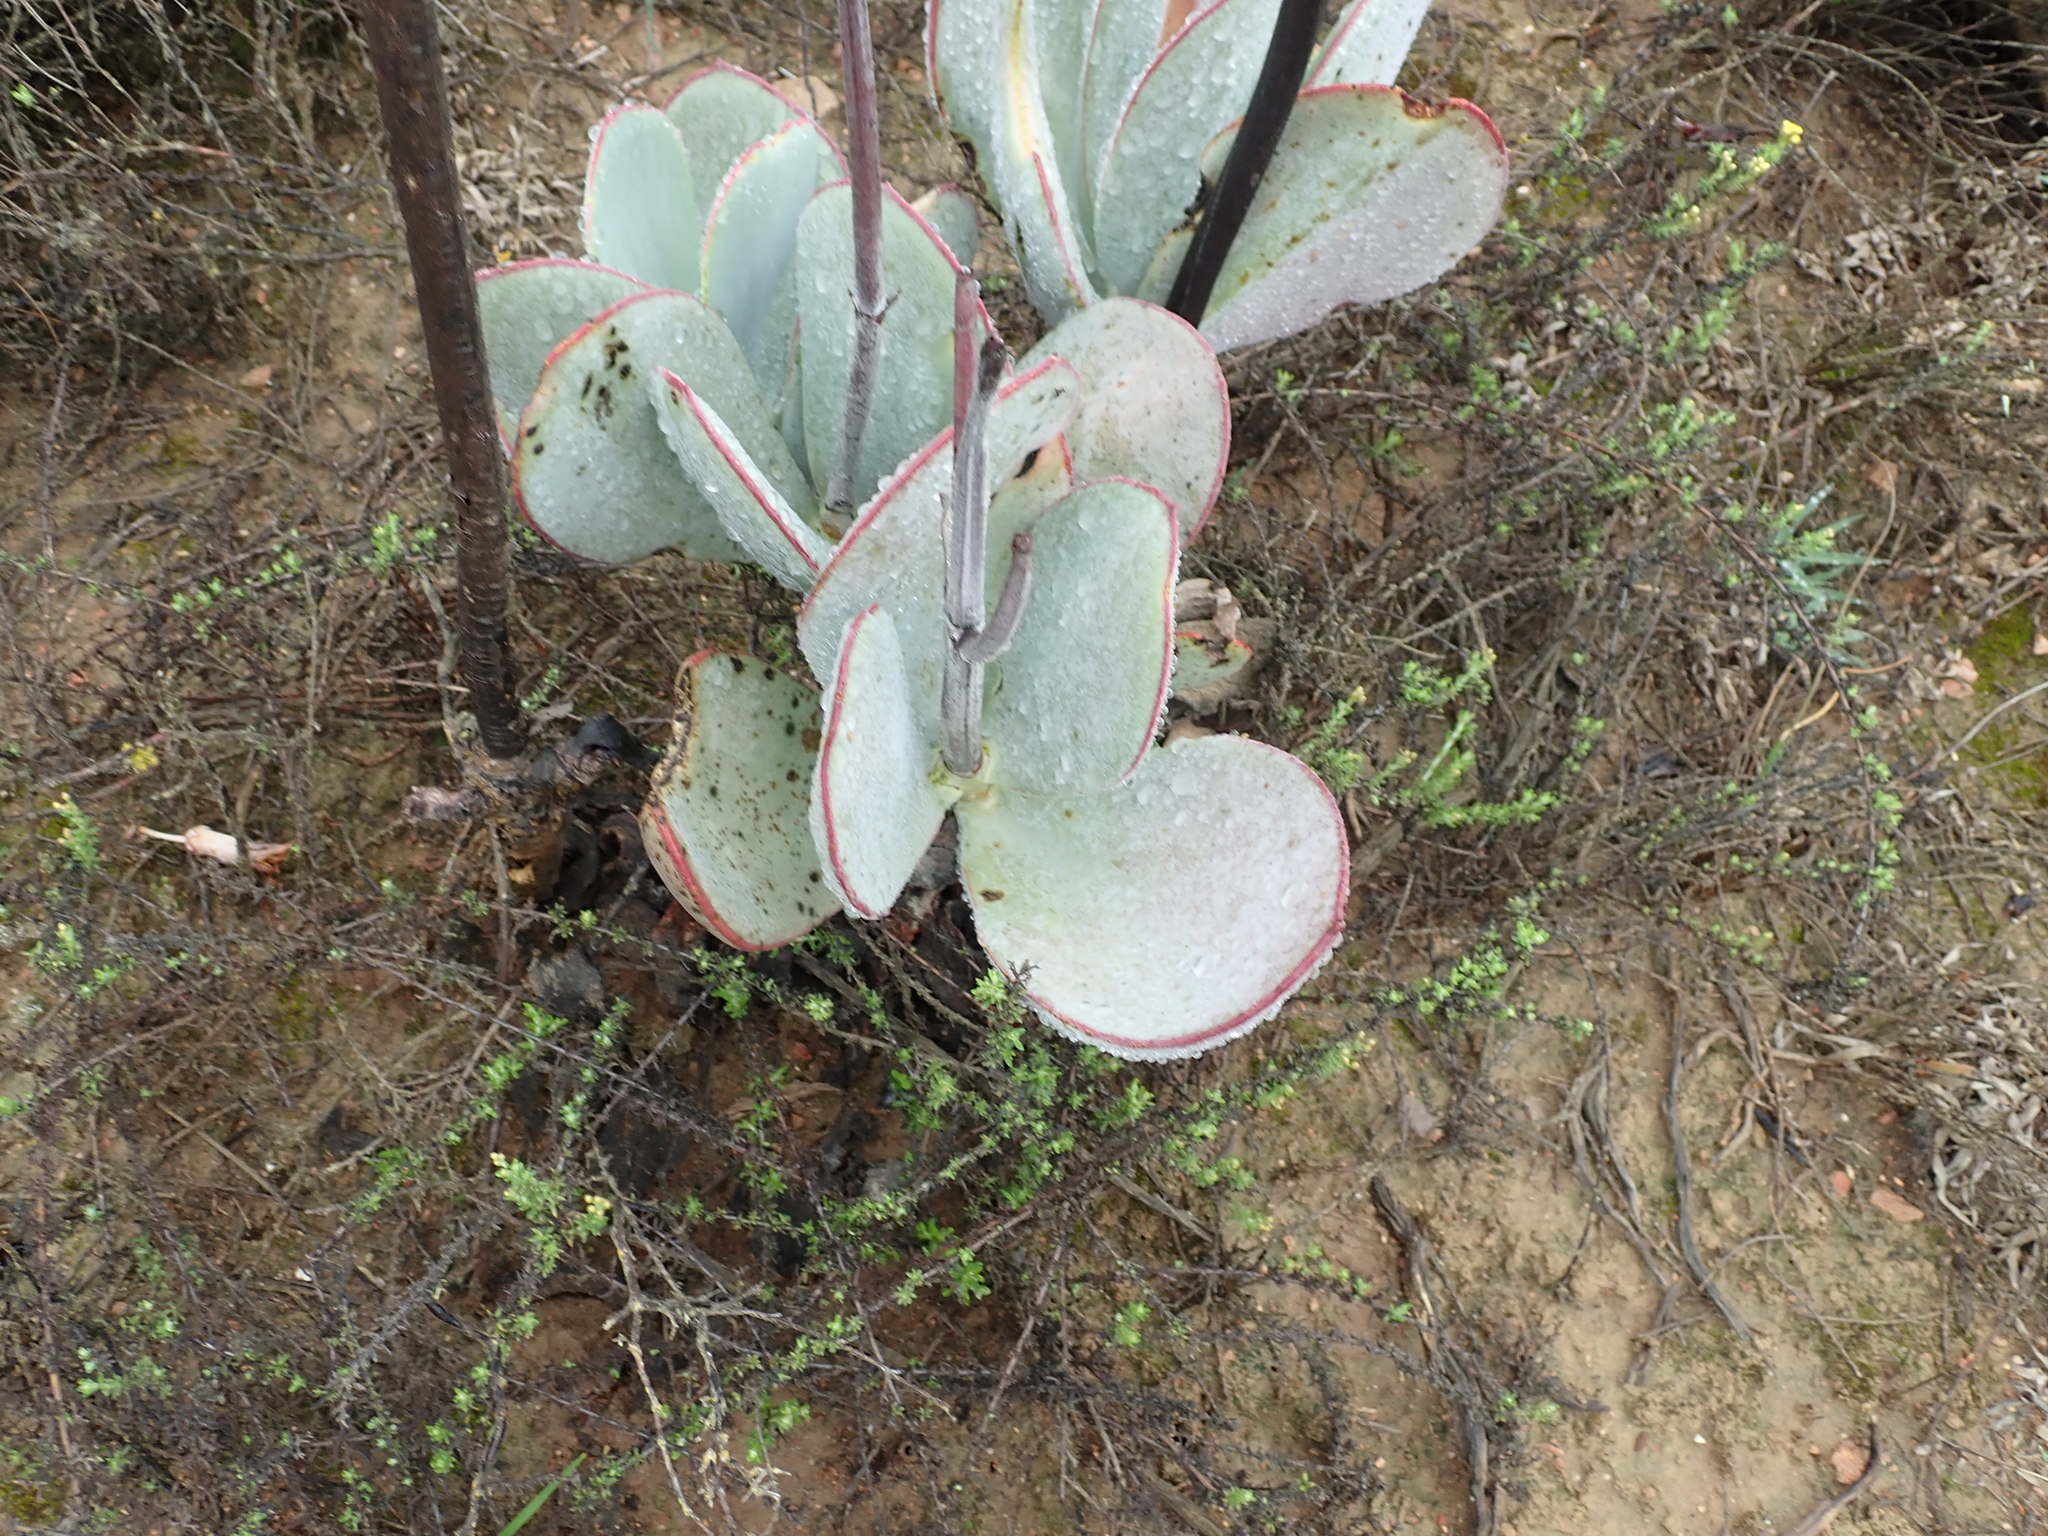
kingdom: Plantae
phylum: Tracheophyta
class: Magnoliopsida
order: Saxifragales
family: Crassulaceae
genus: Cotyledon
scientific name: Cotyledon orbiculata
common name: Pig's ear
